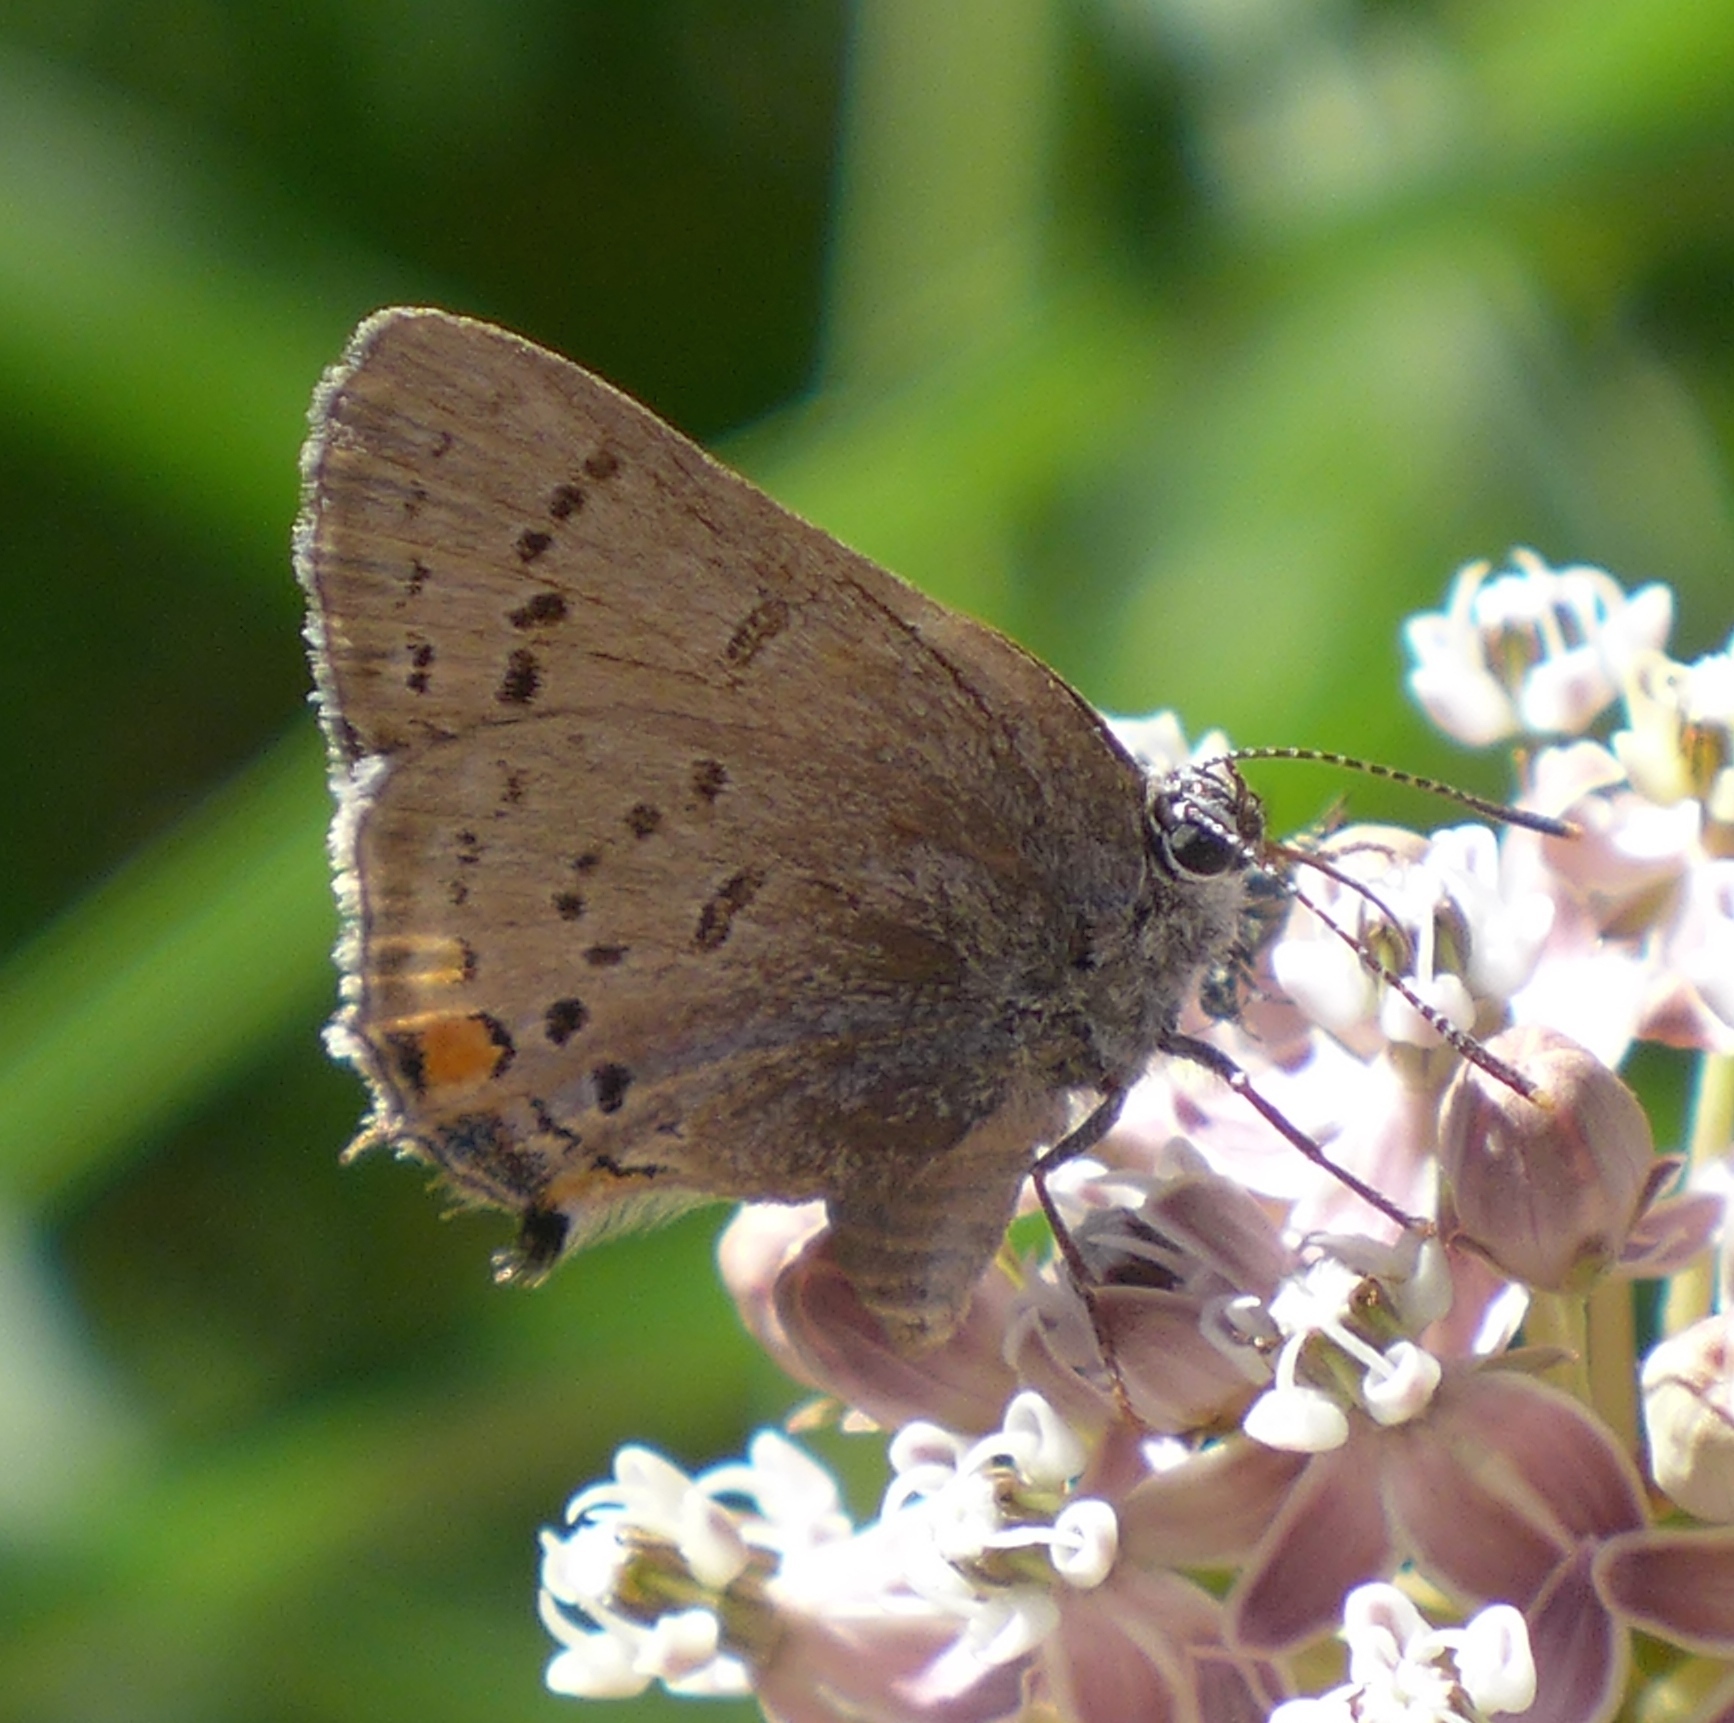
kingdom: Animalia
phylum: Arthropoda
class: Insecta
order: Lepidoptera
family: Lycaenidae
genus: Strymon
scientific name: Strymon acadica
